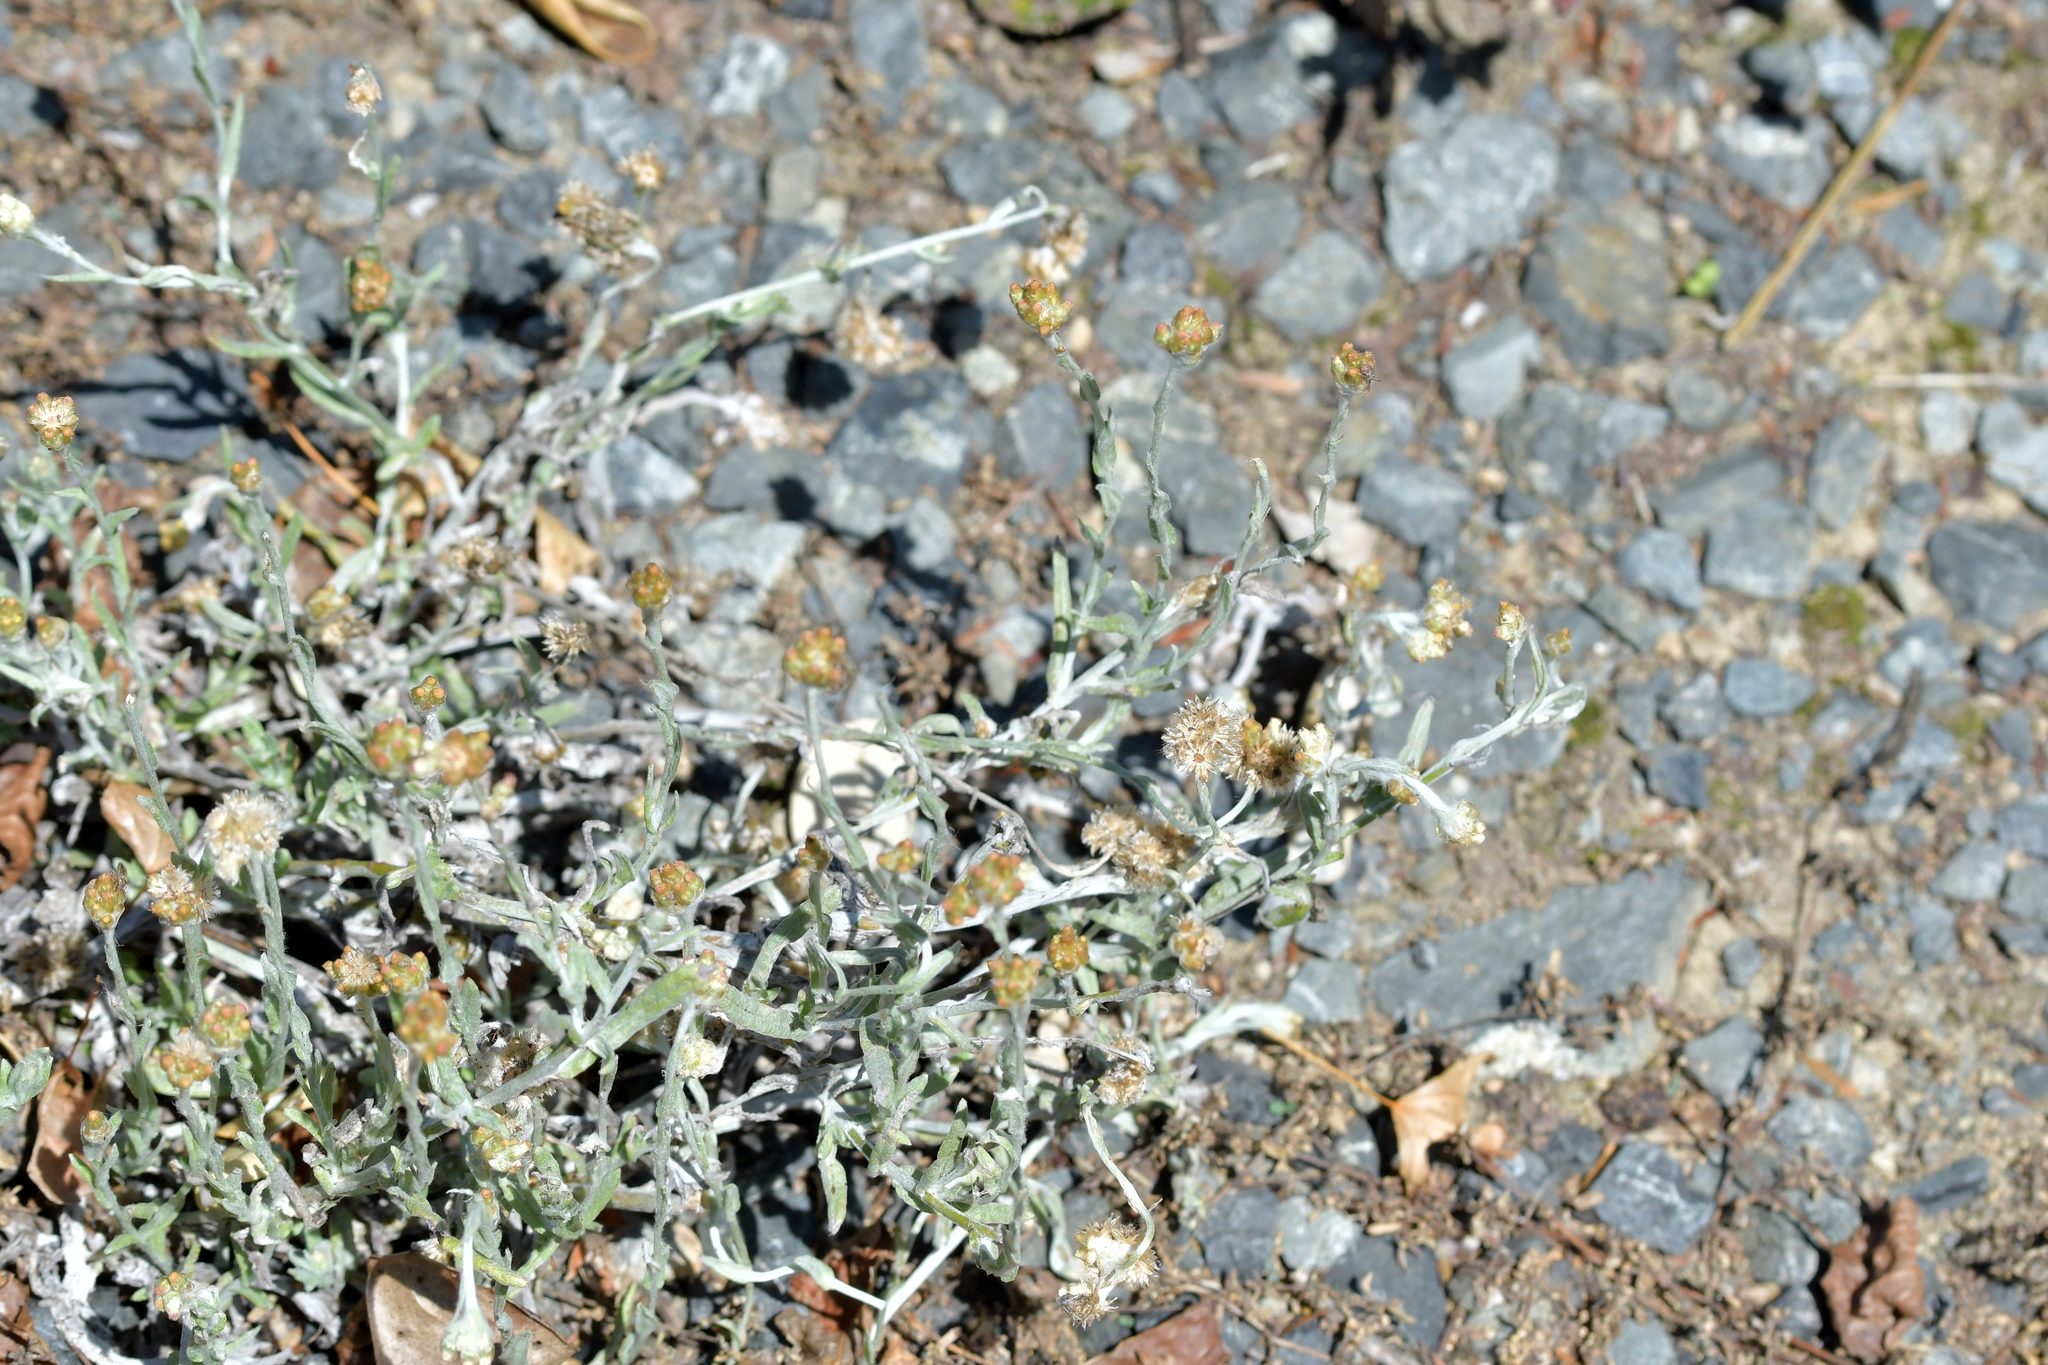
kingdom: Plantae
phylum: Tracheophyta
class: Magnoliopsida
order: Asterales
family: Asteraceae
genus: Helichrysum
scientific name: Helichrysum luteoalbum
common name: Daisy
